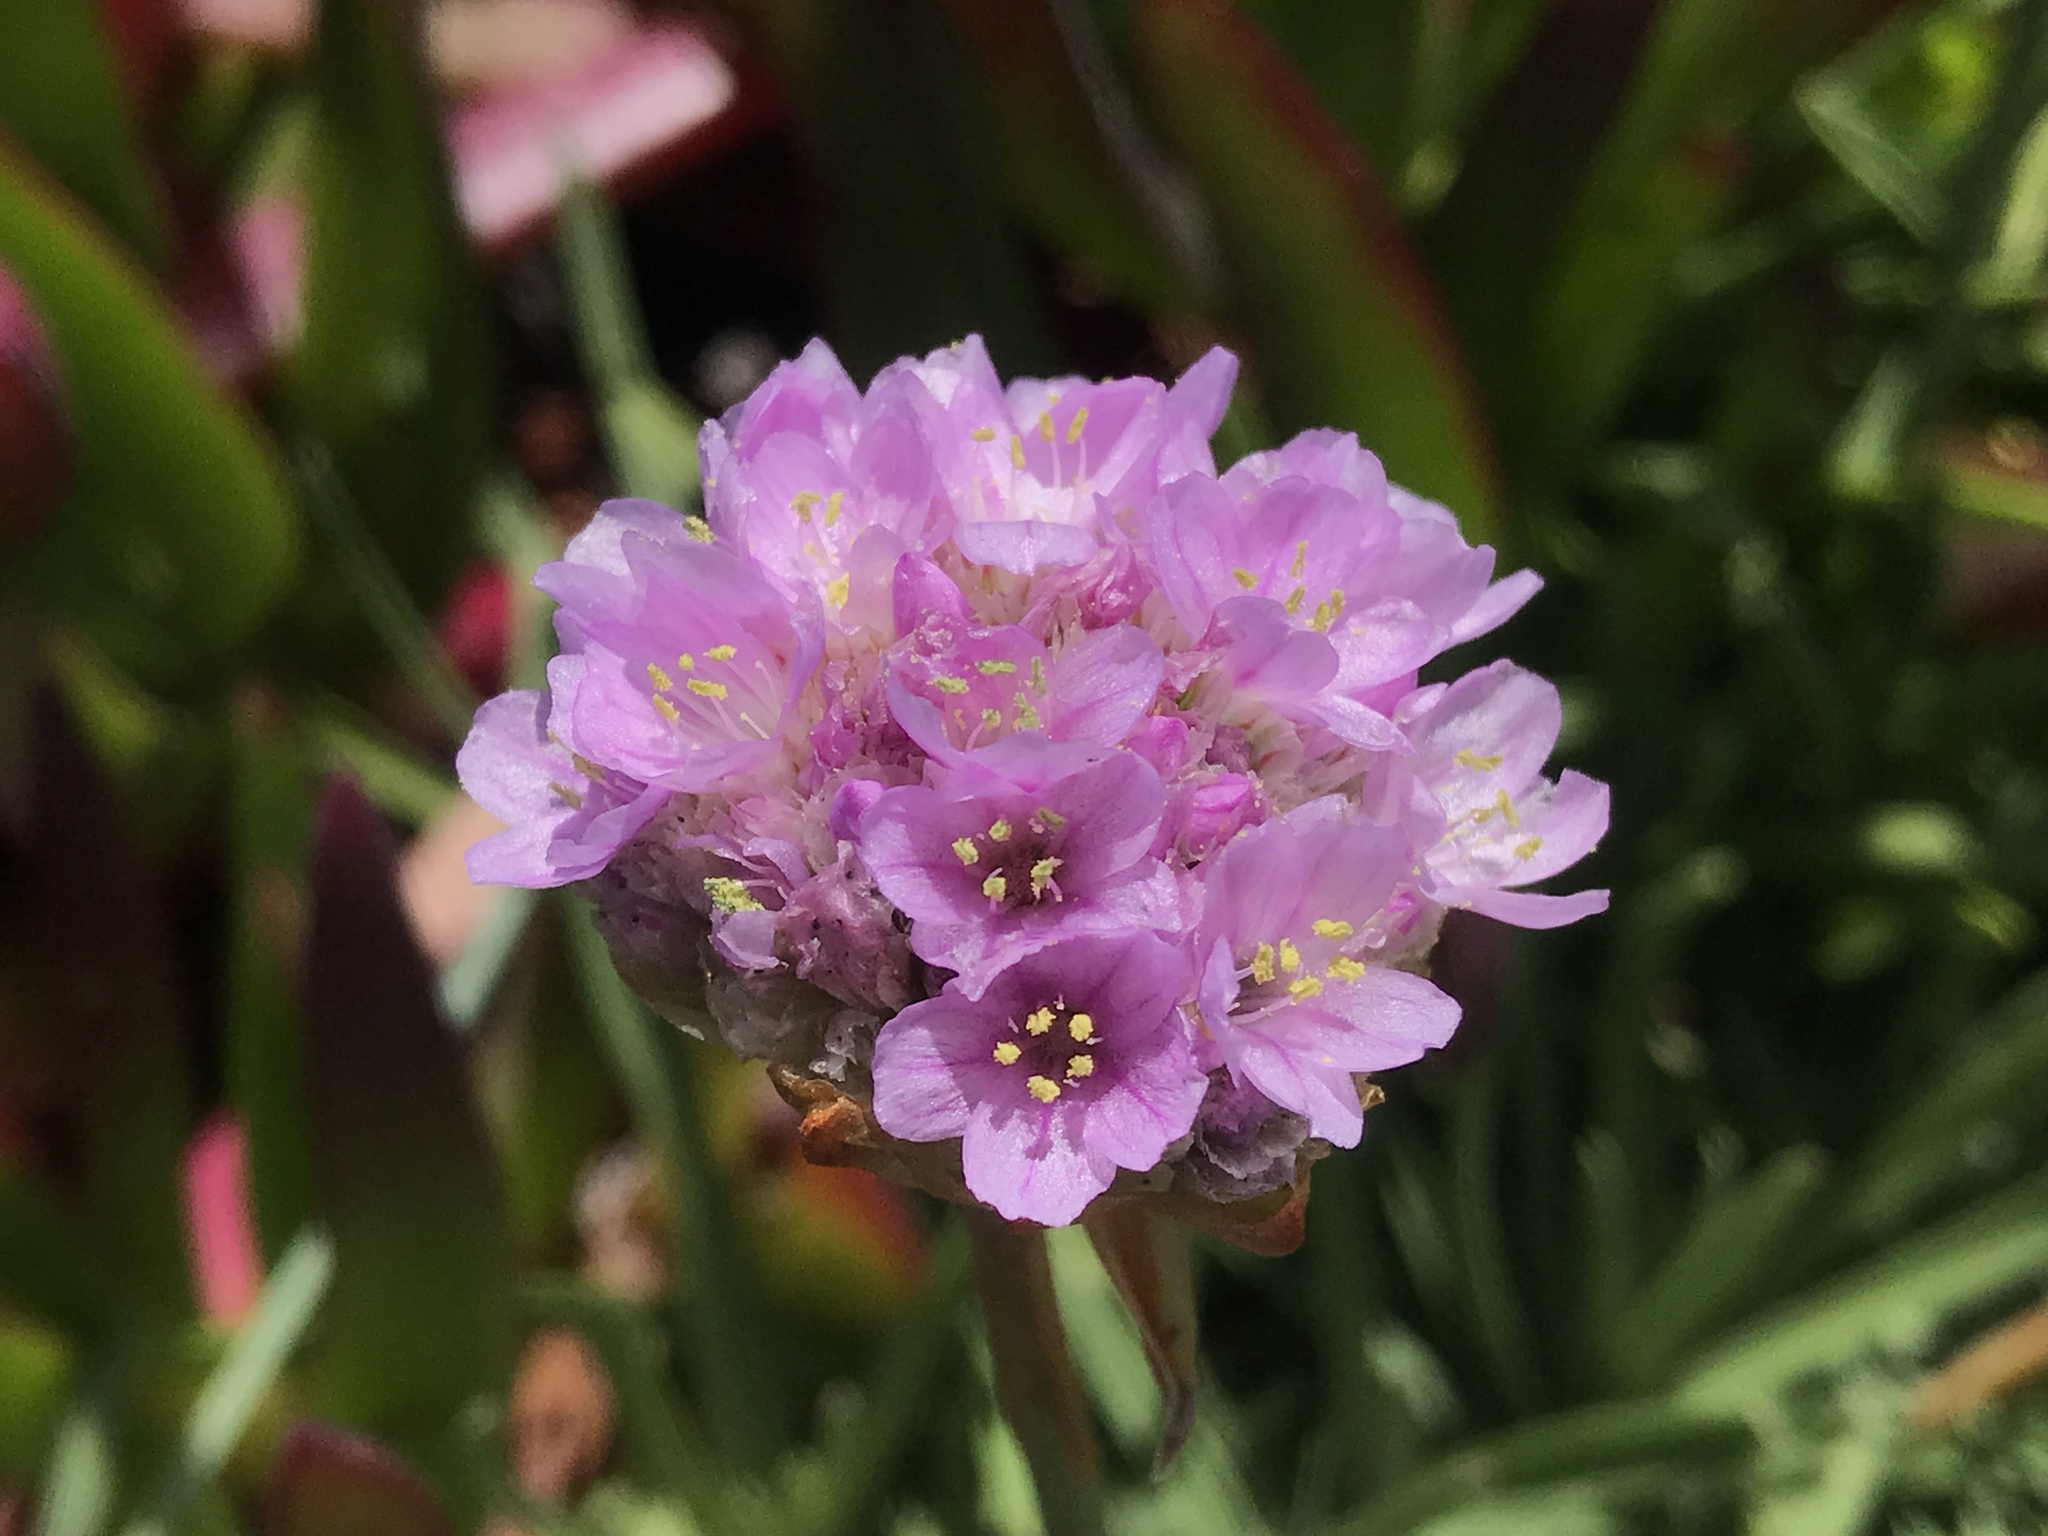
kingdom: Plantae
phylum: Tracheophyta
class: Magnoliopsida
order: Caryophyllales
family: Plumbaginaceae
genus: Armeria
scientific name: Armeria maritima
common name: Thrift
